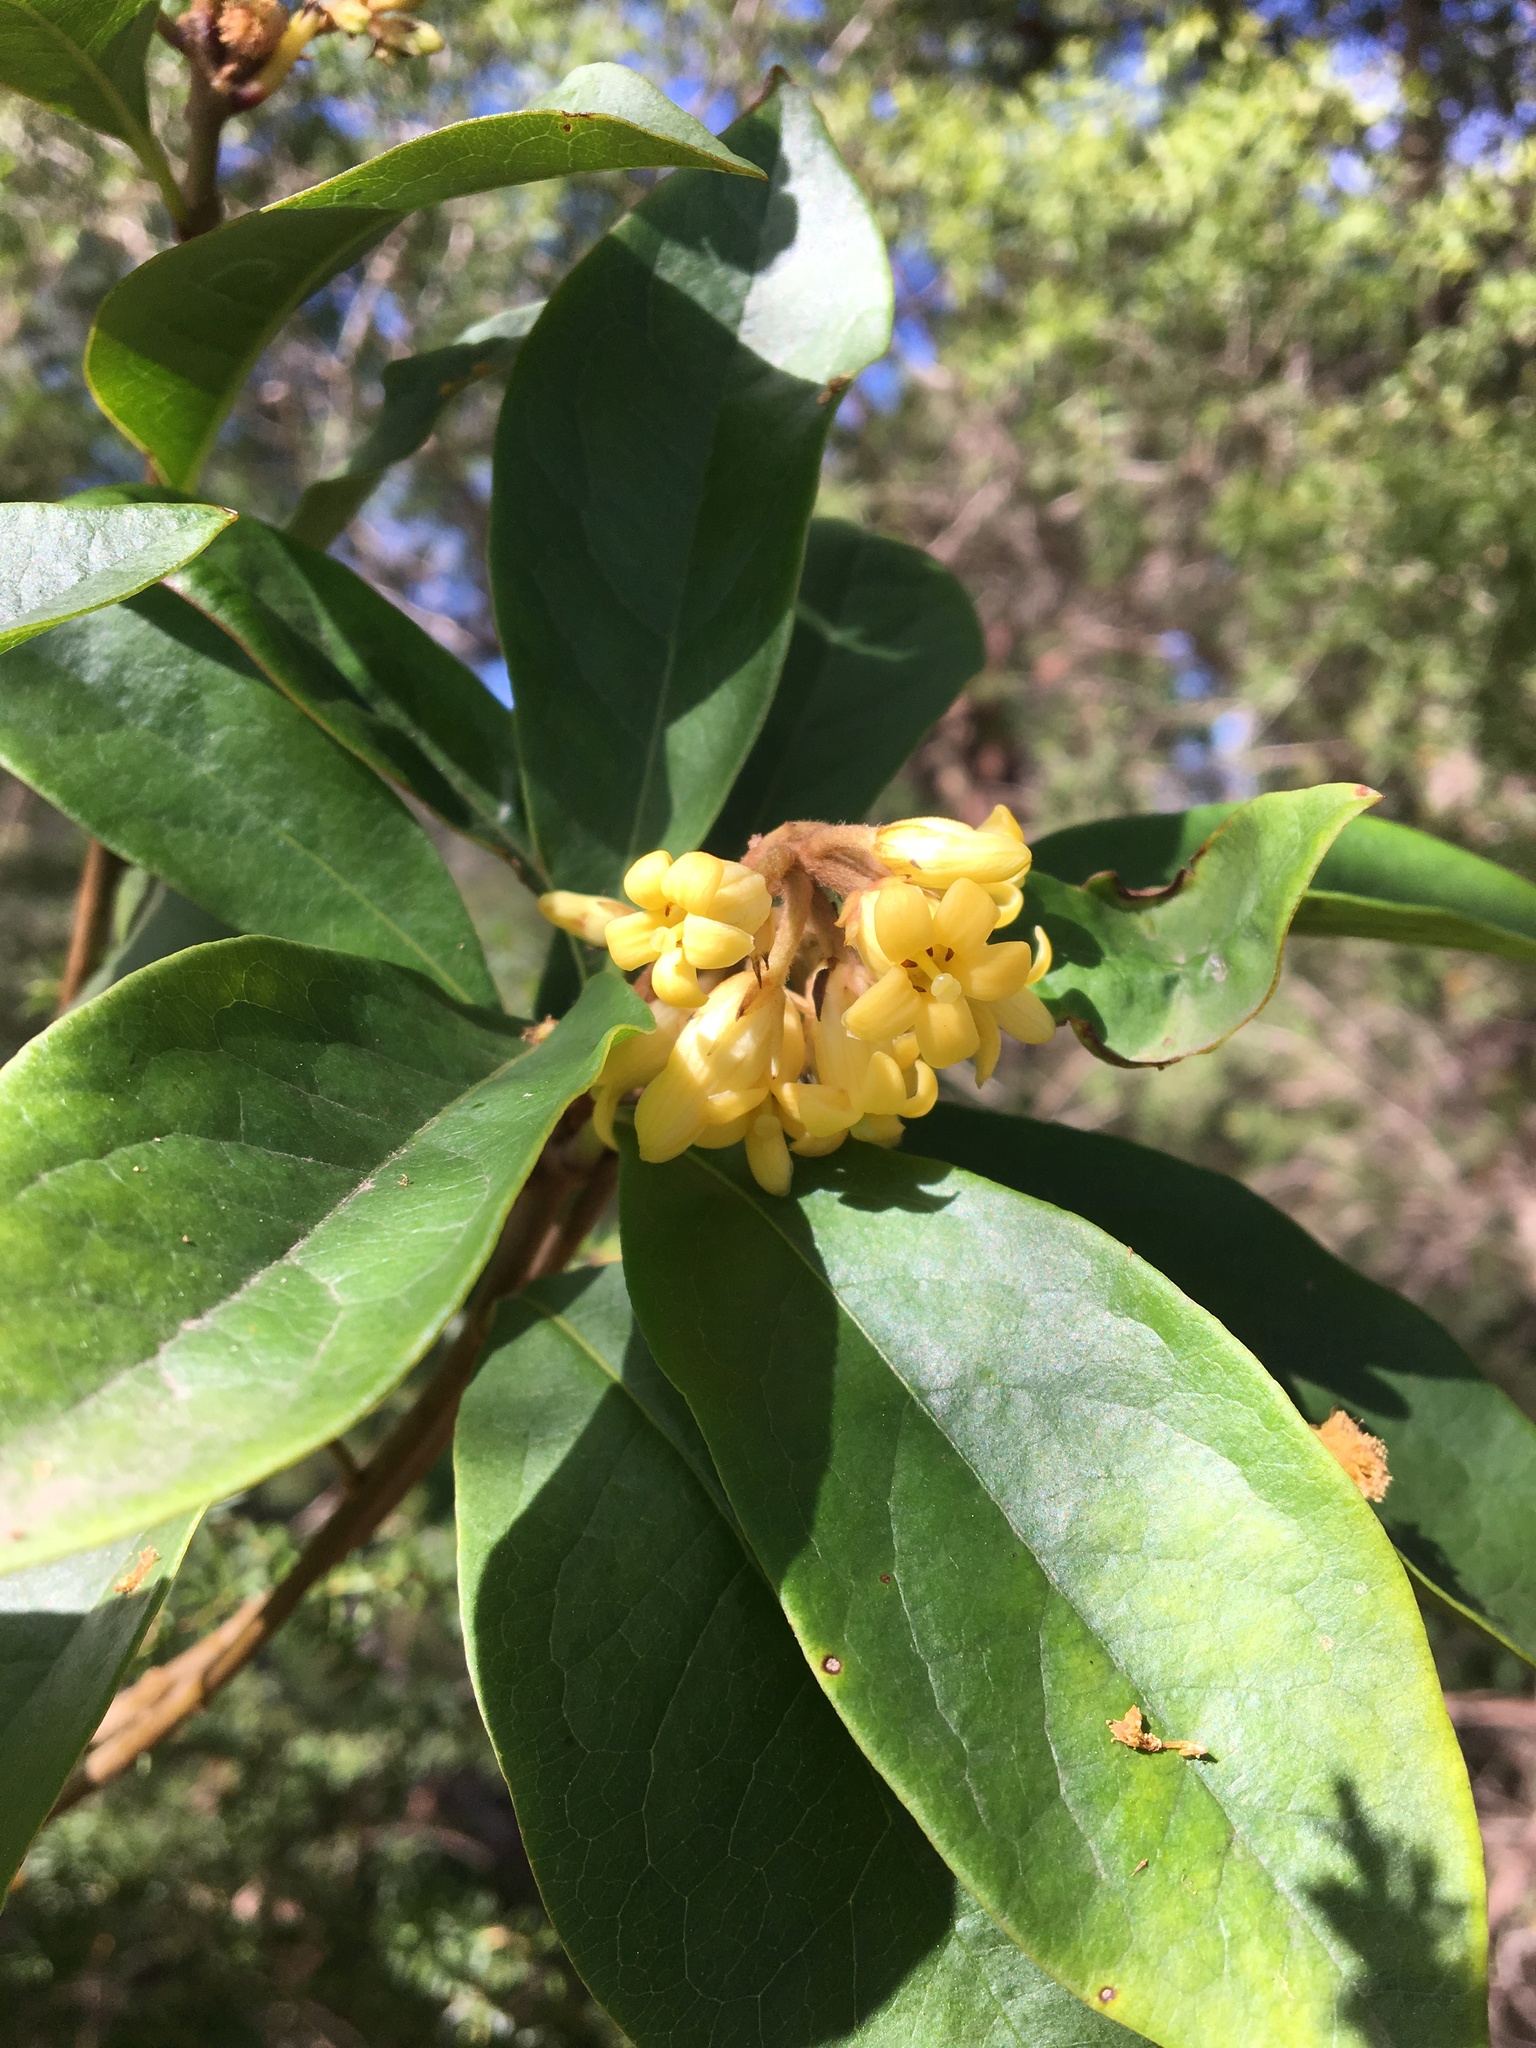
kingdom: Plantae
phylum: Tracheophyta
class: Magnoliopsida
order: Apiales
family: Pittosporaceae
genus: Pittosporum
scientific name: Pittosporum revolutum
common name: Brisbane-laurel
